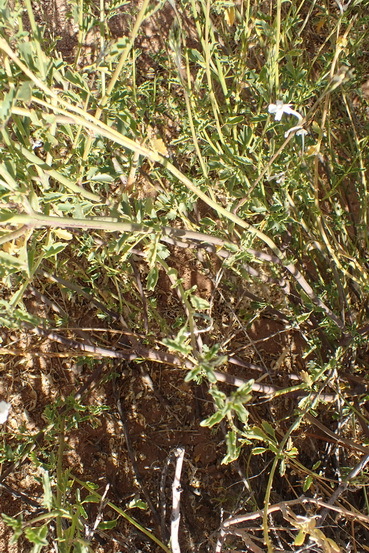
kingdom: Plantae
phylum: Tracheophyta
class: Magnoliopsida
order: Lamiales
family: Verbenaceae
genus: Chascanum
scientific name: Chascanum garipense
